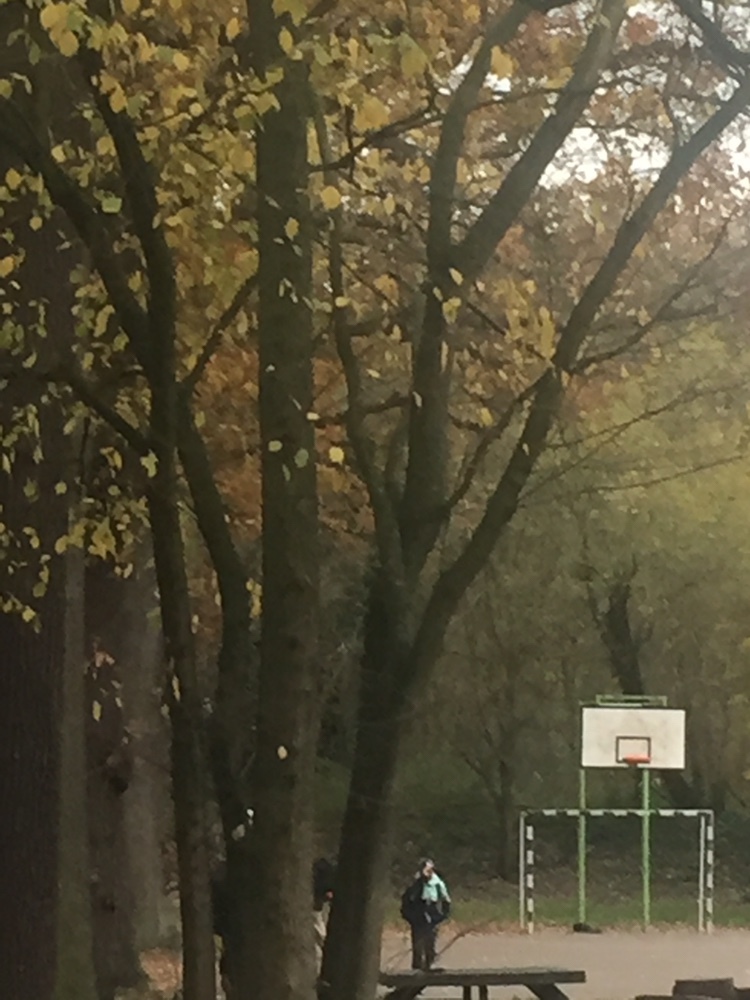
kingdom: Plantae
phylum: Tracheophyta
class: Magnoliopsida
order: Malvales
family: Malvaceae
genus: Tilia
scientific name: Tilia platyphyllos
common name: Large-leaved lime
